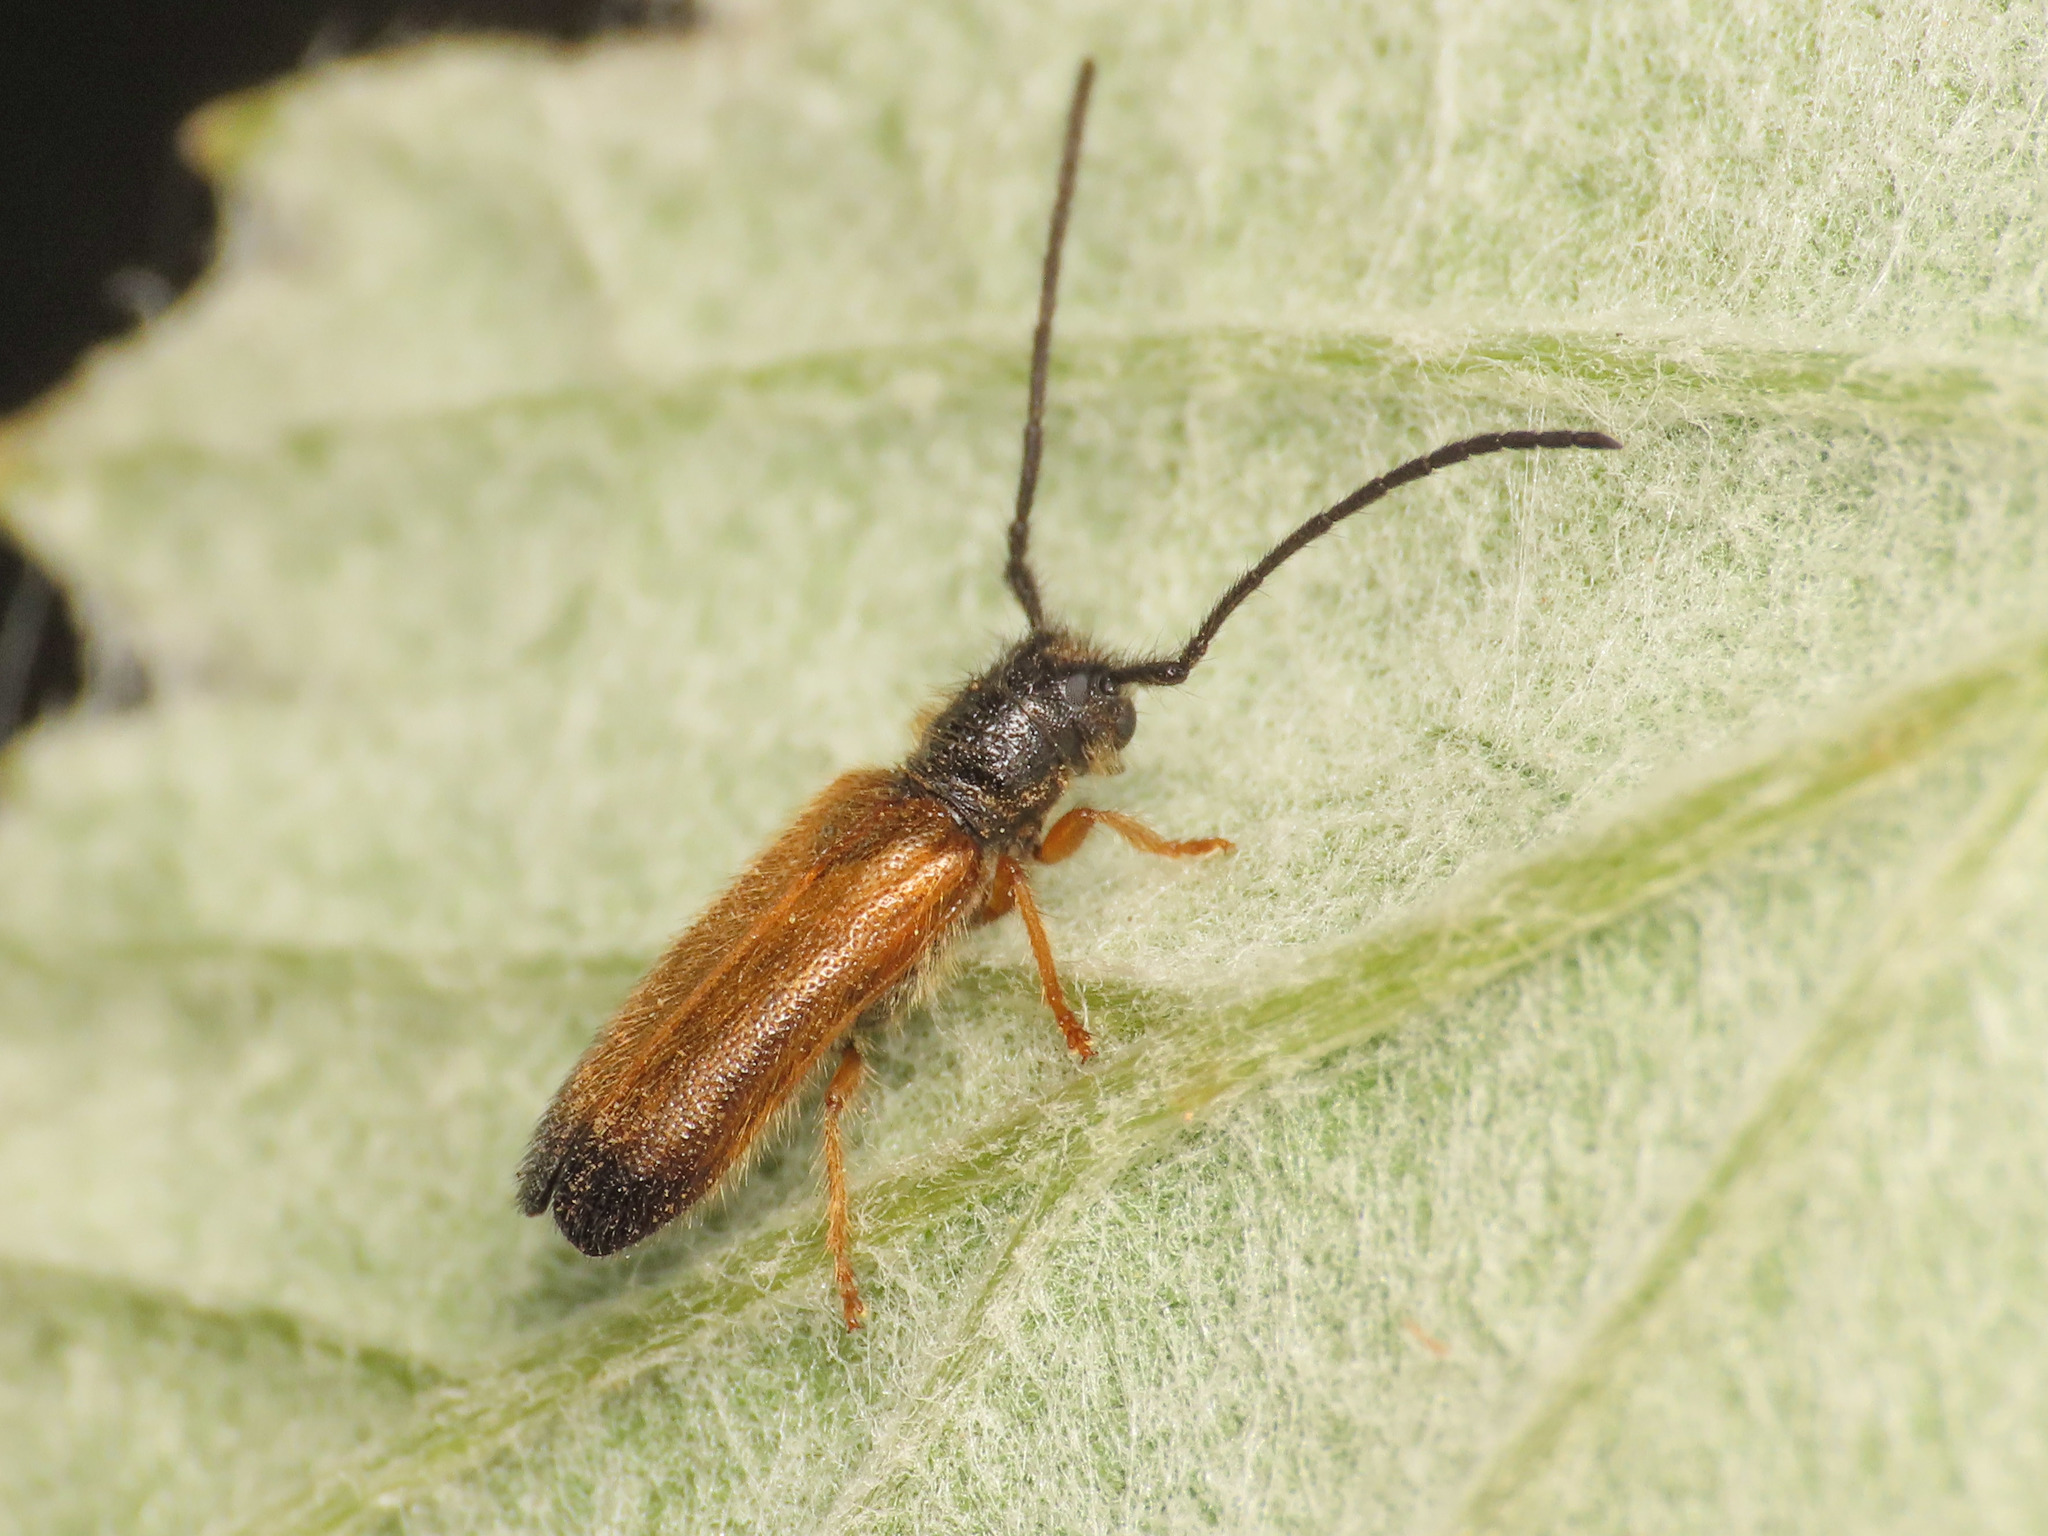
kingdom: Animalia
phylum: Arthropoda
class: Insecta
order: Coleoptera
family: Cerambycidae
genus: Tetrops
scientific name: Tetrops starkii
